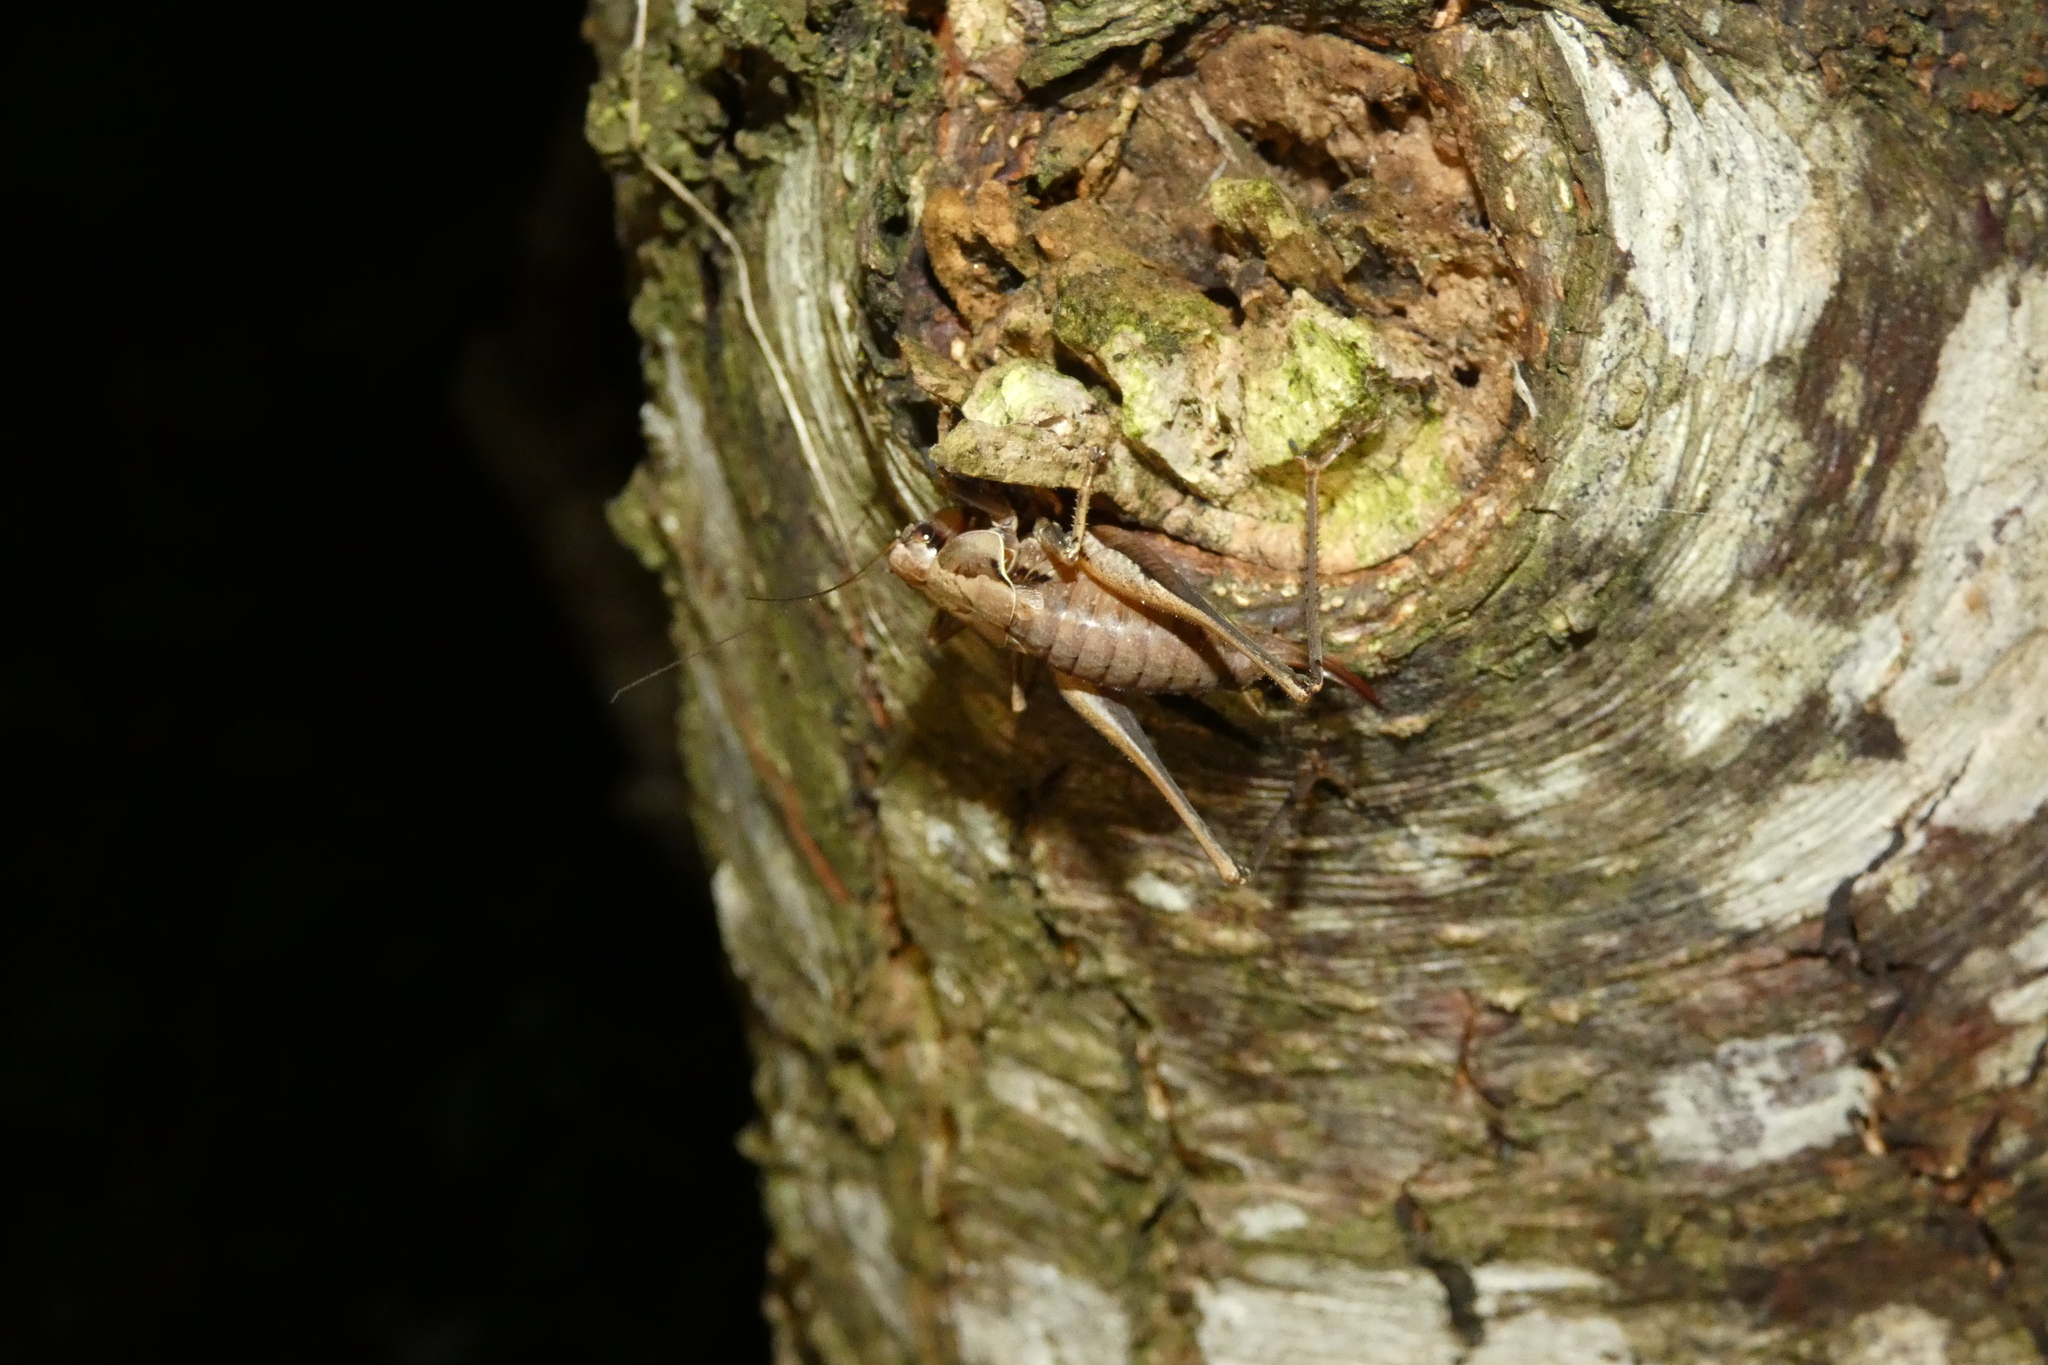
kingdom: Animalia
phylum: Arthropoda
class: Insecta
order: Orthoptera
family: Tettigoniidae
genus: Pholidoptera
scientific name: Pholidoptera griseoaptera
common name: Dark bush-cricket
